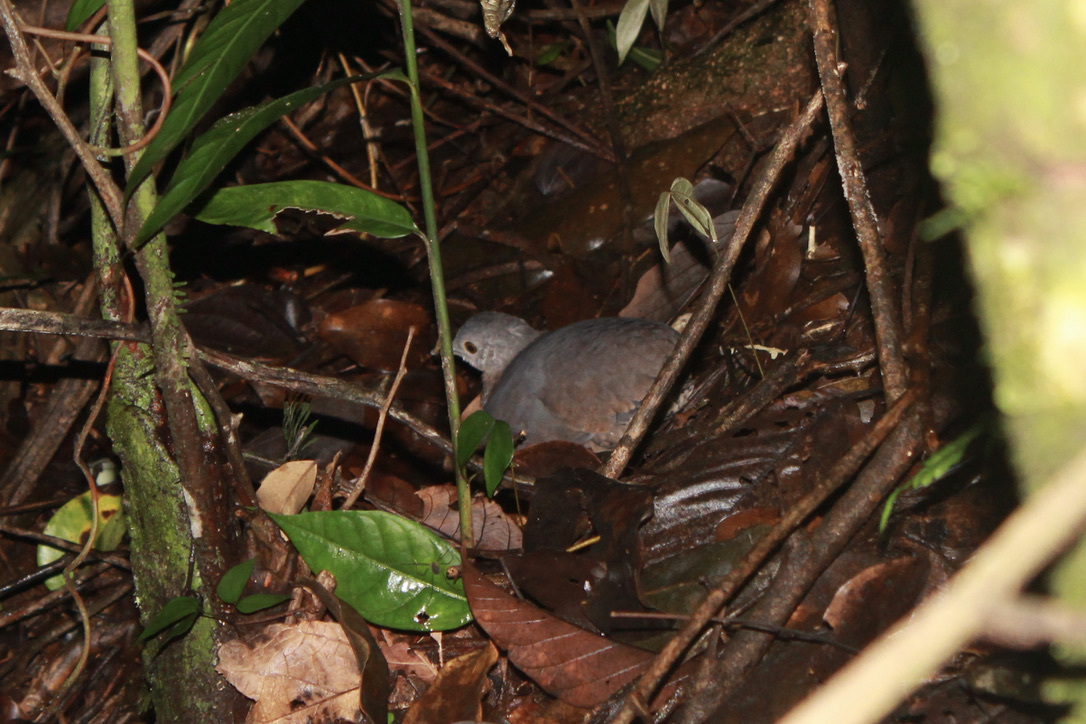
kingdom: Animalia
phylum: Chordata
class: Aves
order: Tinamiformes
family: Tinamidae
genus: Crypturellus
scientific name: Crypturellus soui
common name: Little tinamou
